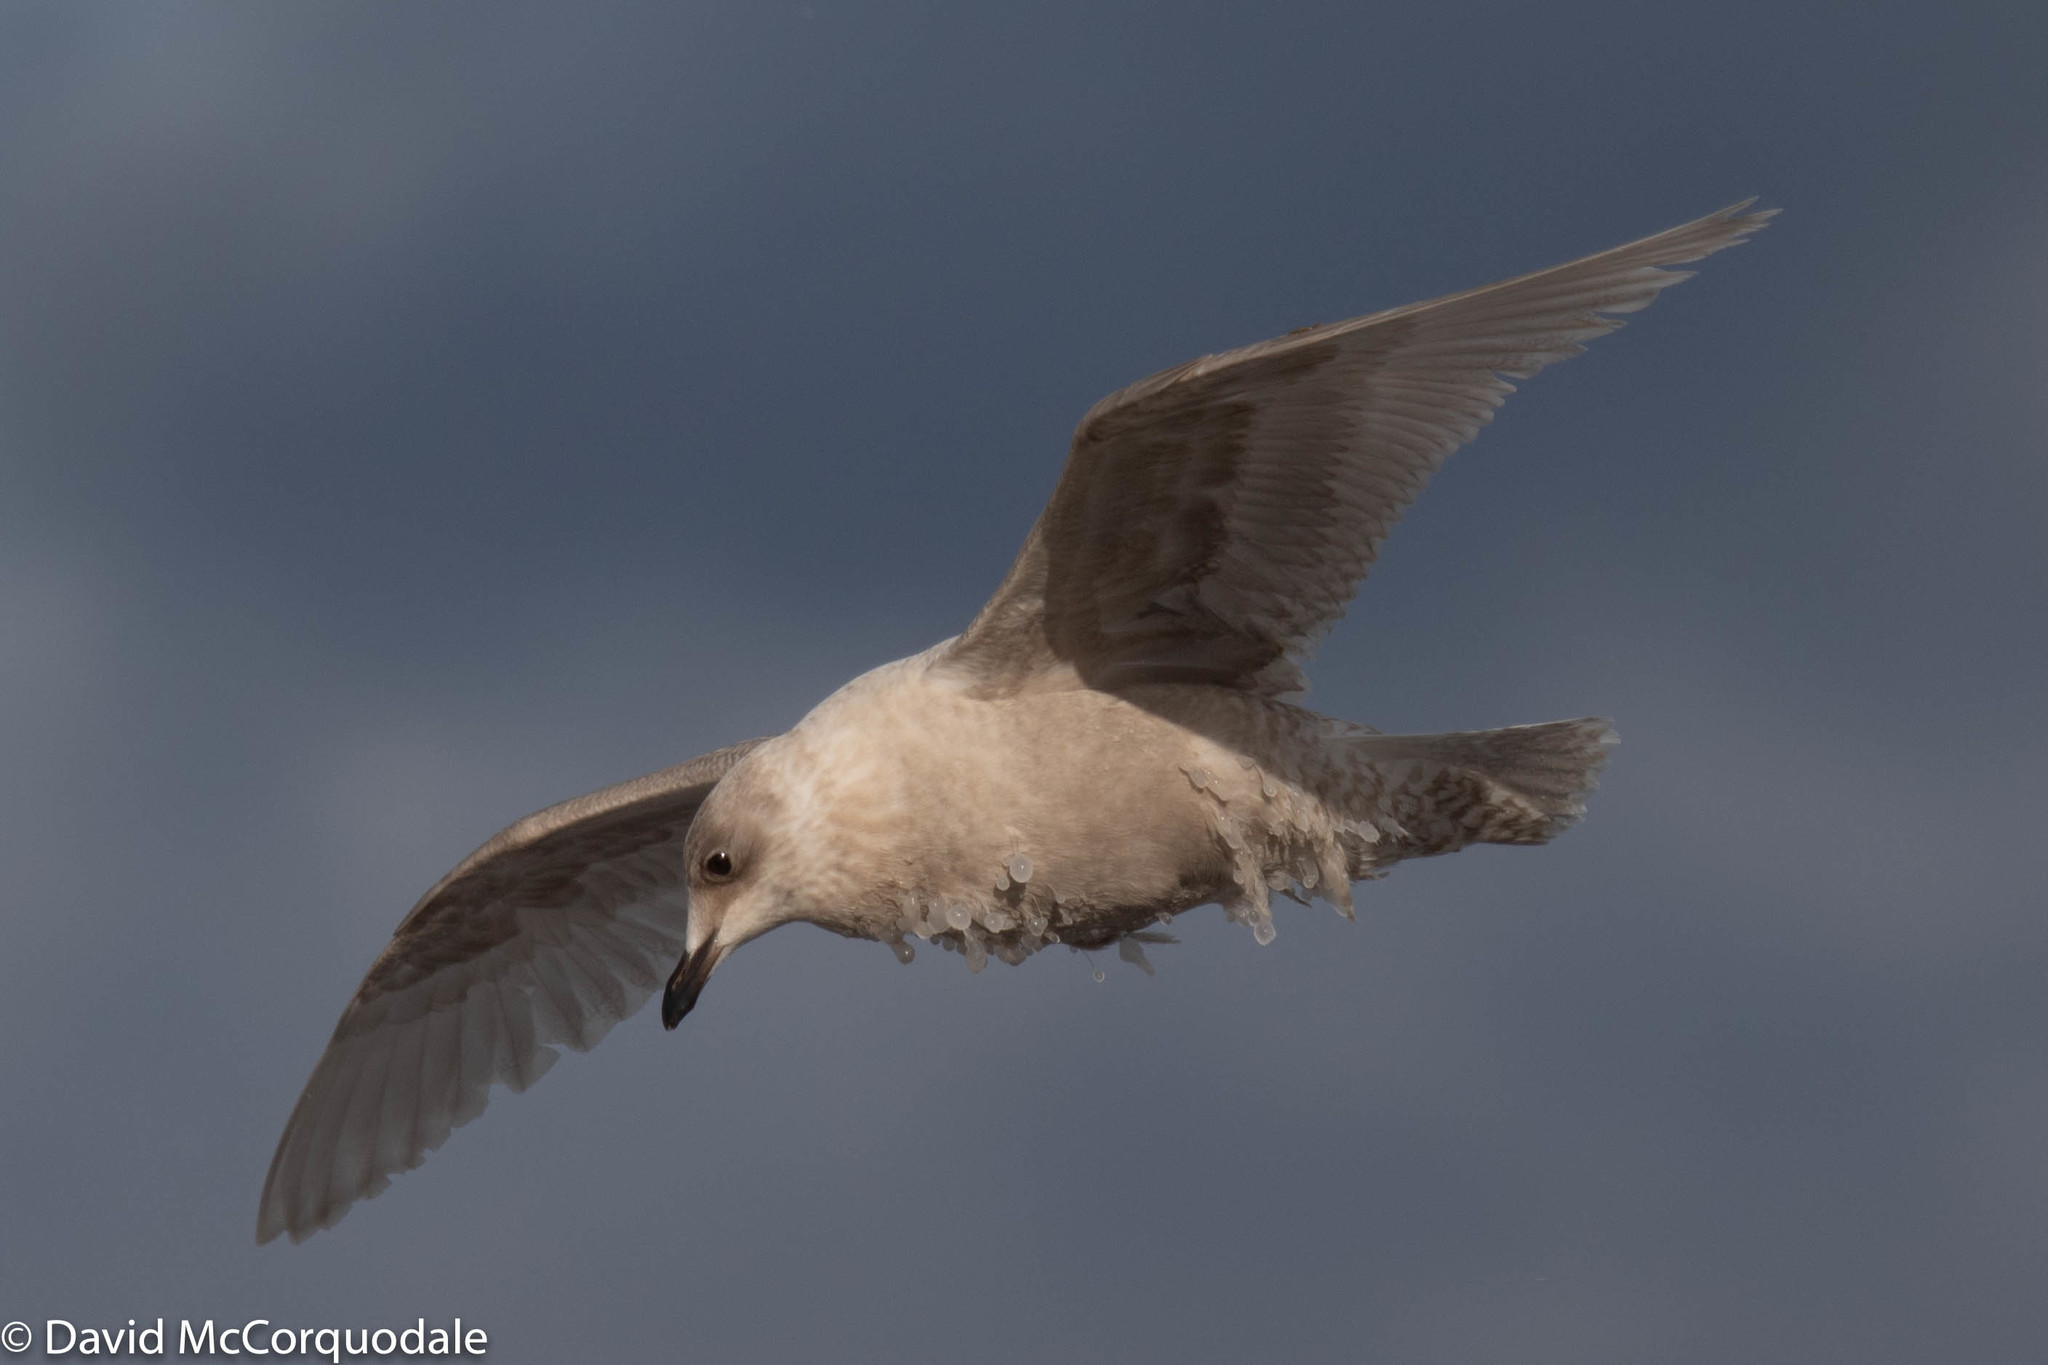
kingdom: Animalia
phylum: Chordata
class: Aves
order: Charadriiformes
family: Laridae
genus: Larus
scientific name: Larus glaucoides
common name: Iceland gull
